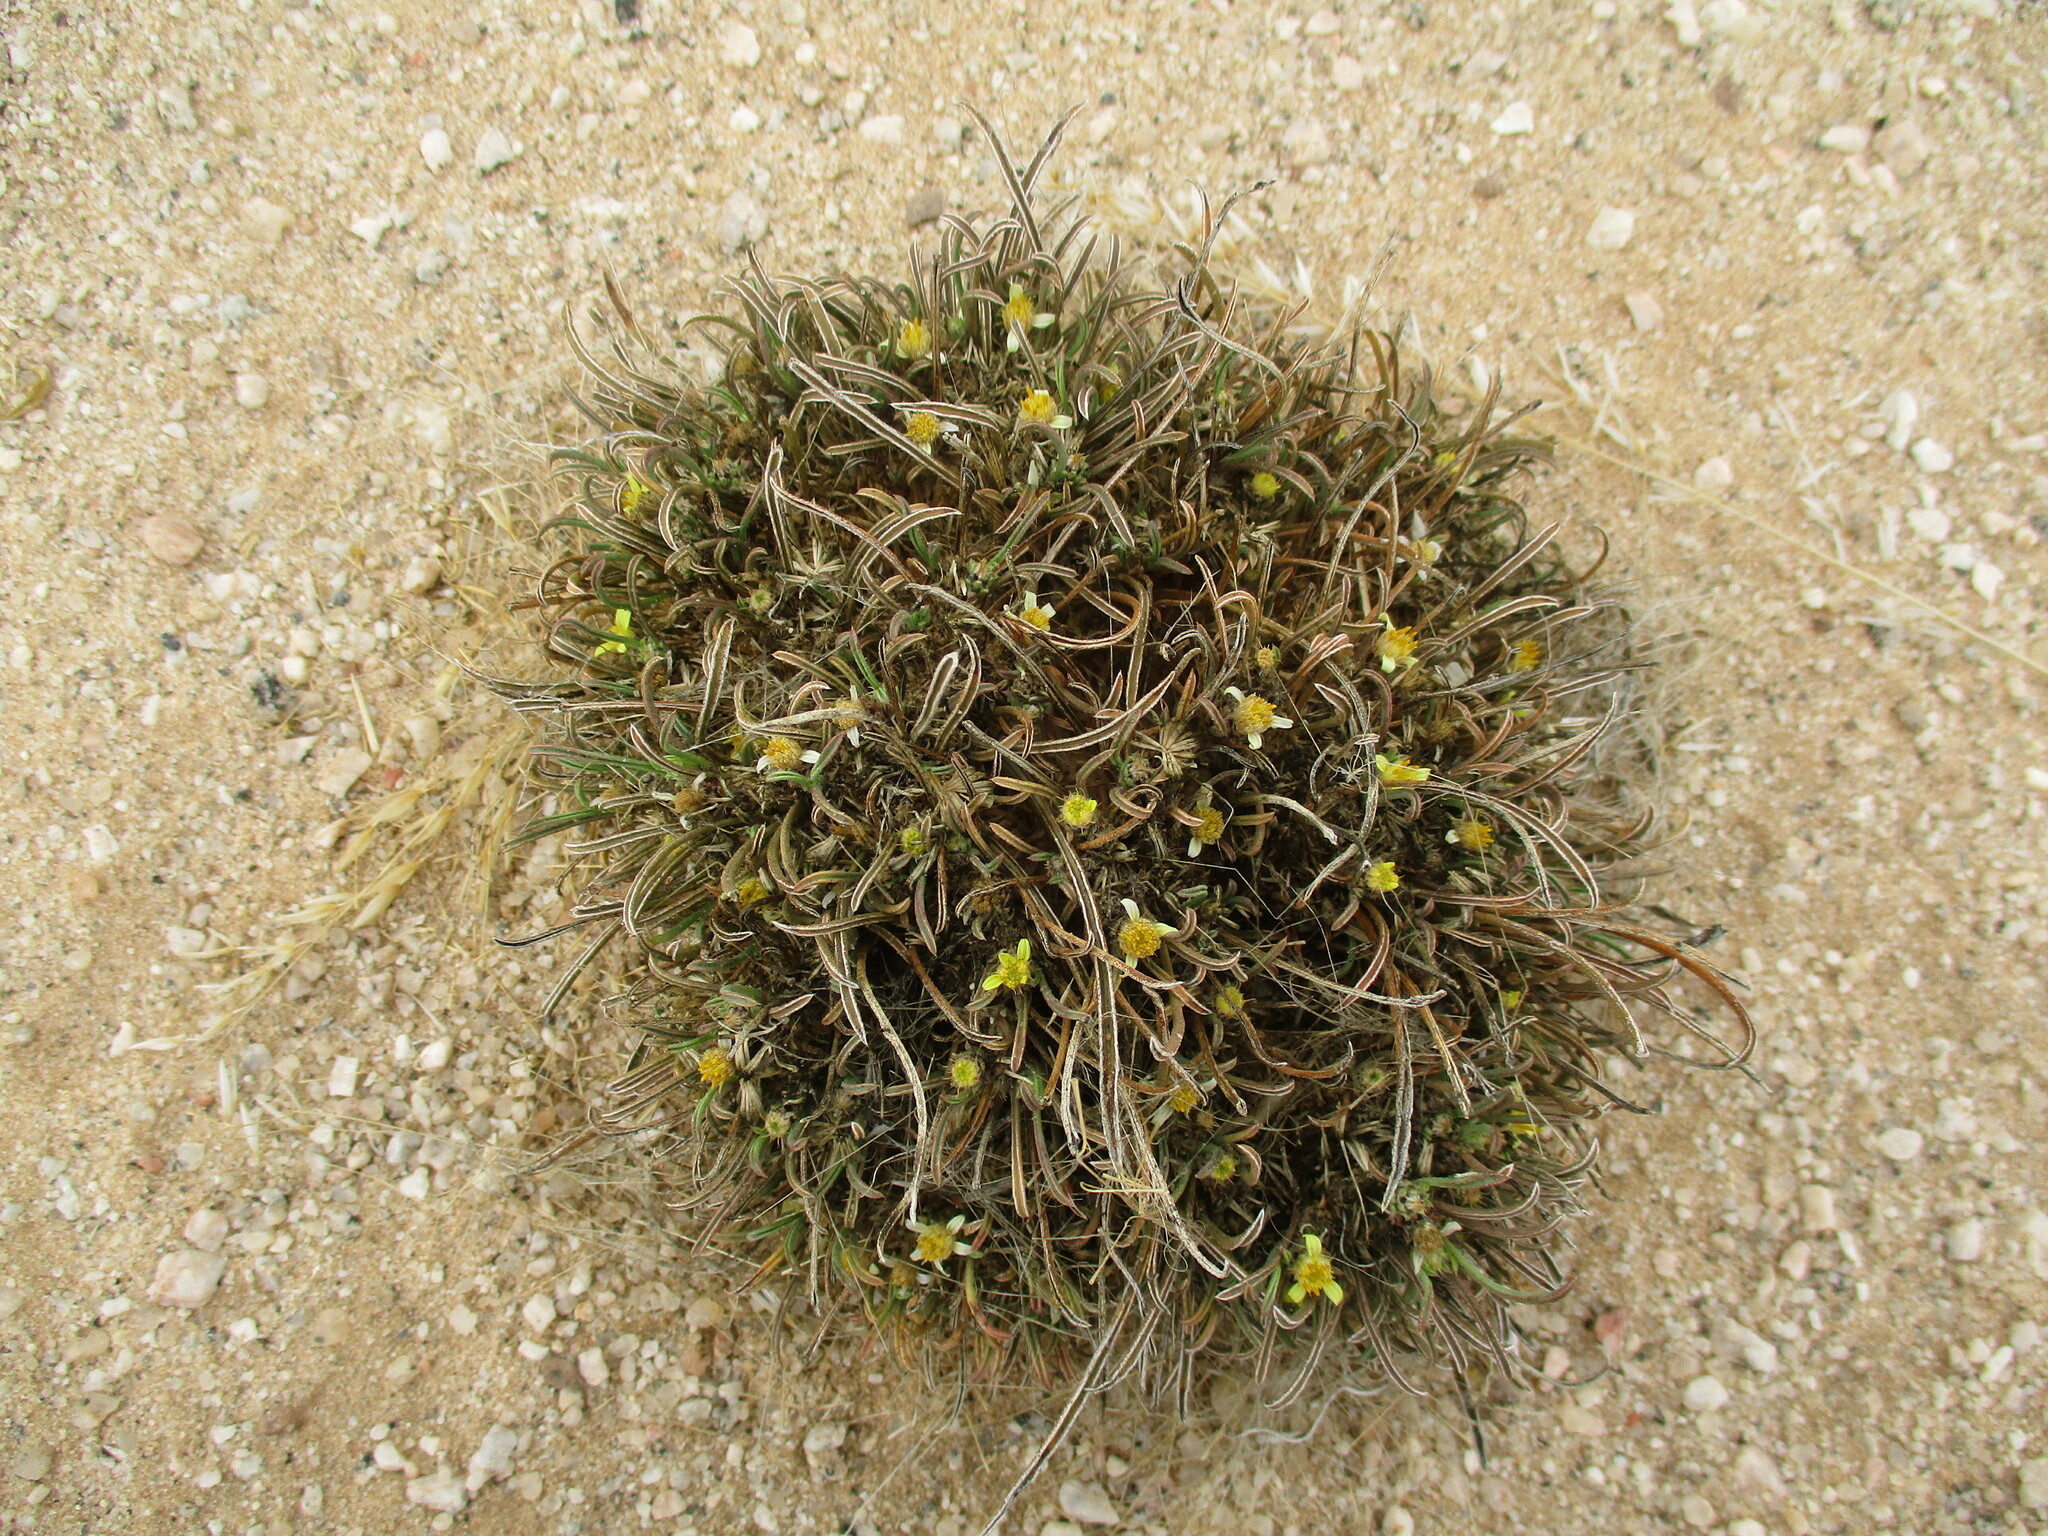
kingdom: Plantae
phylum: Tracheophyta
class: Magnoliopsida
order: Asterales
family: Asteraceae
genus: Geigeria
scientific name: Geigeria ornativa
